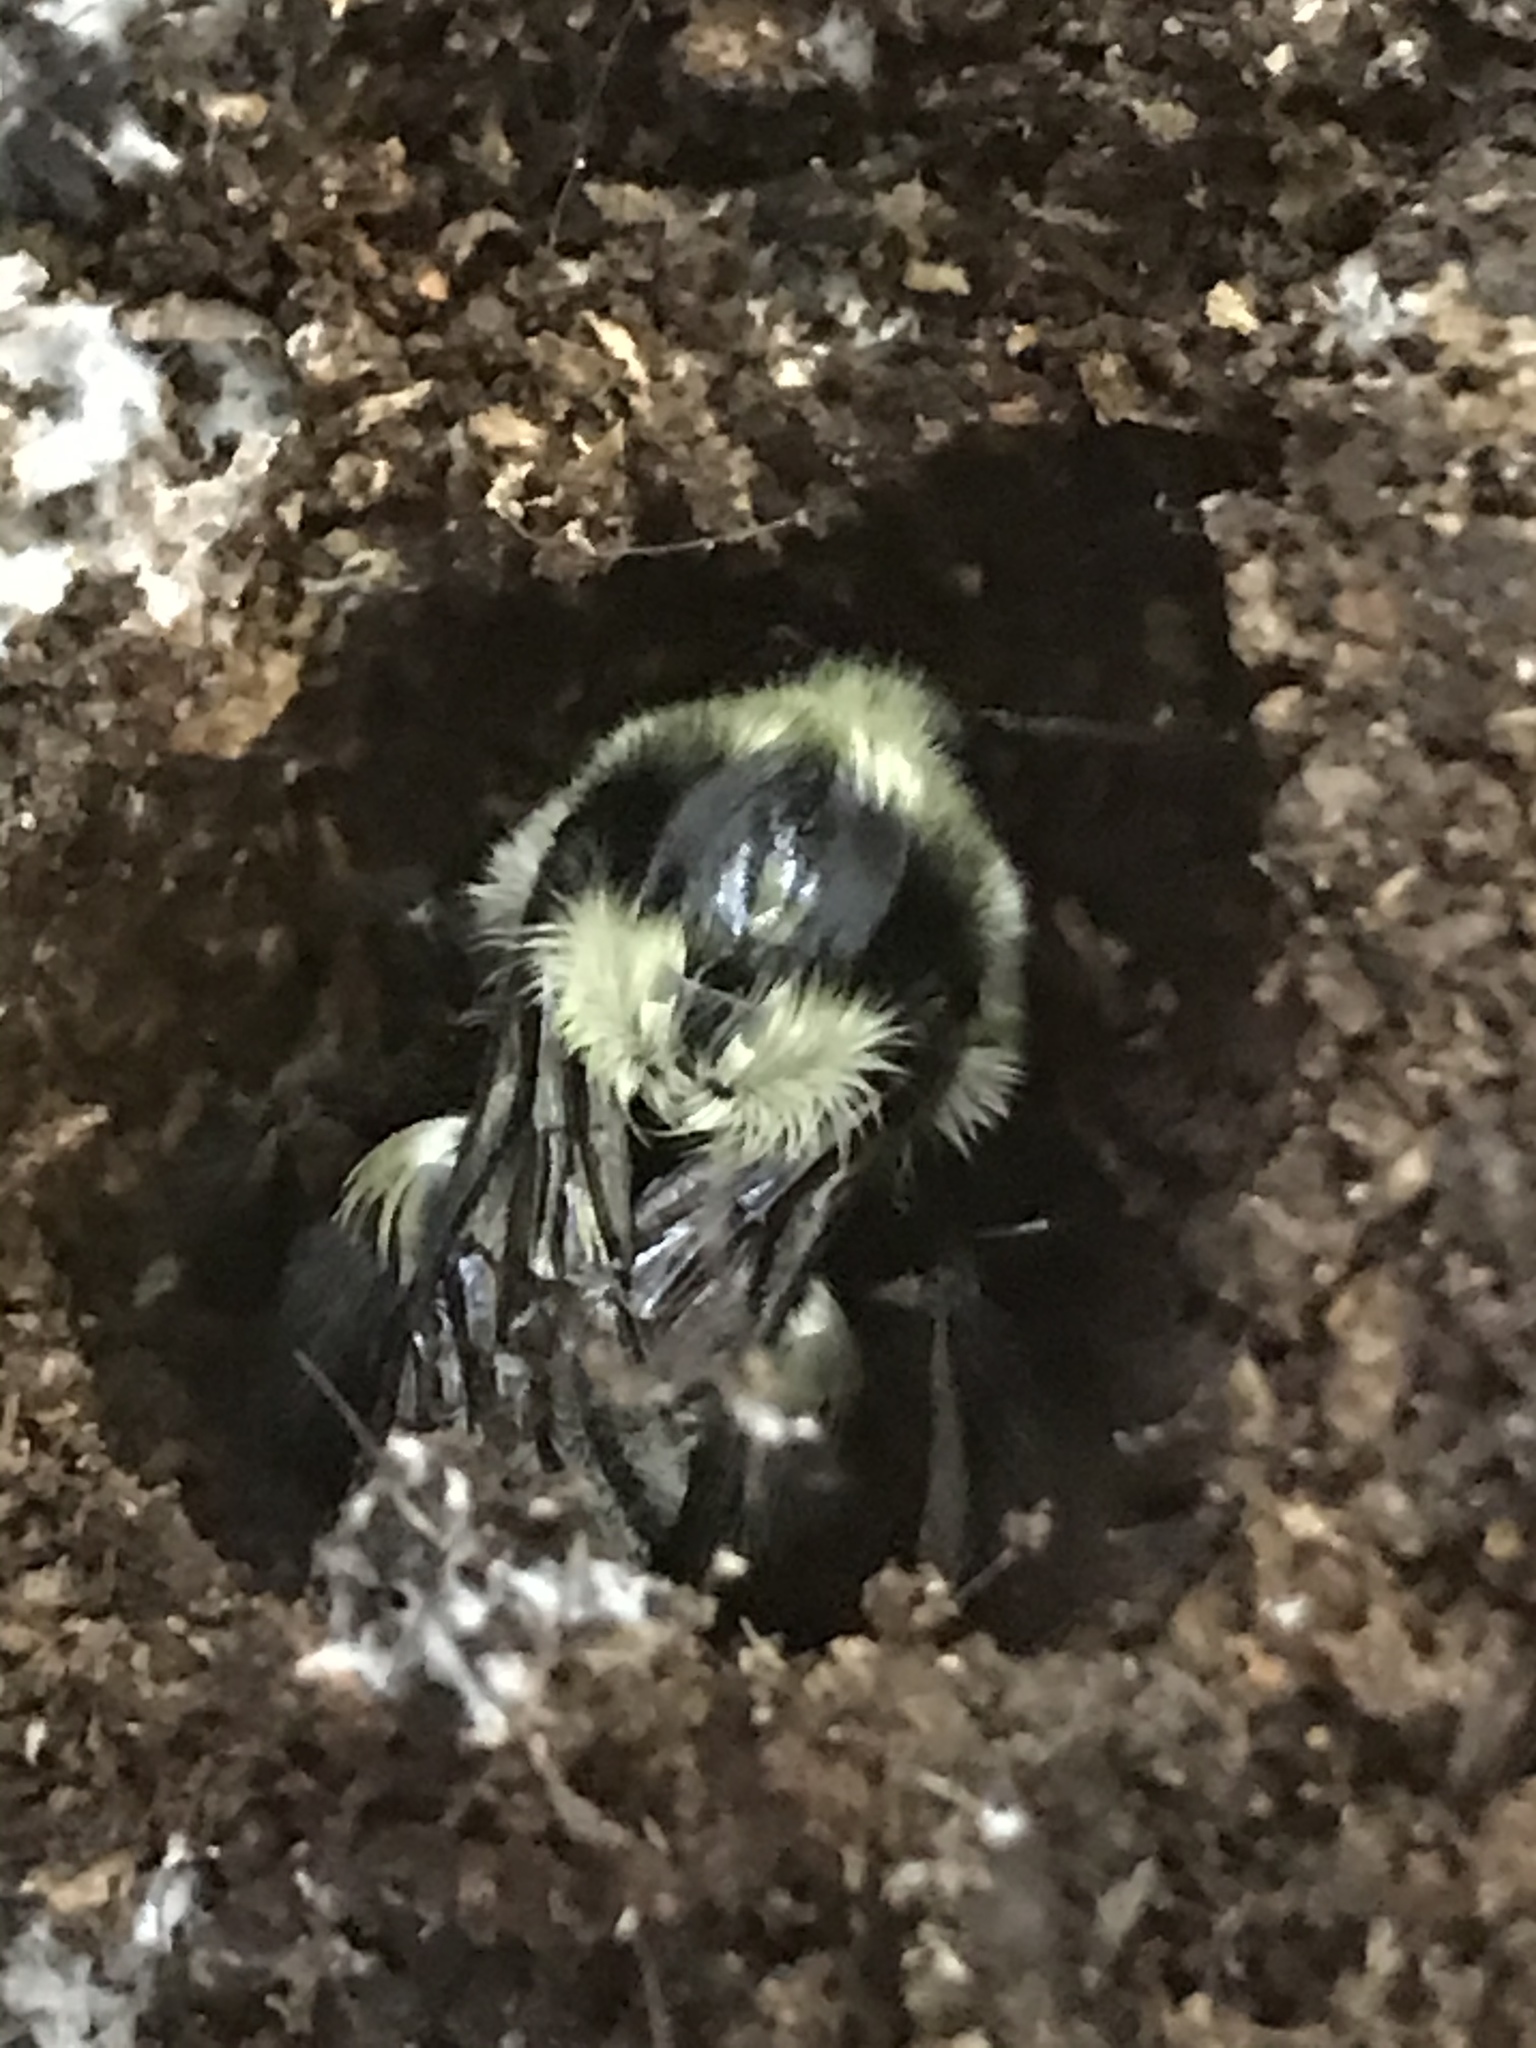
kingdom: Animalia
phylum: Arthropoda
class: Insecta
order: Hymenoptera
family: Apidae
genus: Bombus
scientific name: Bombus melanopygus
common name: Black tail bumble bee
